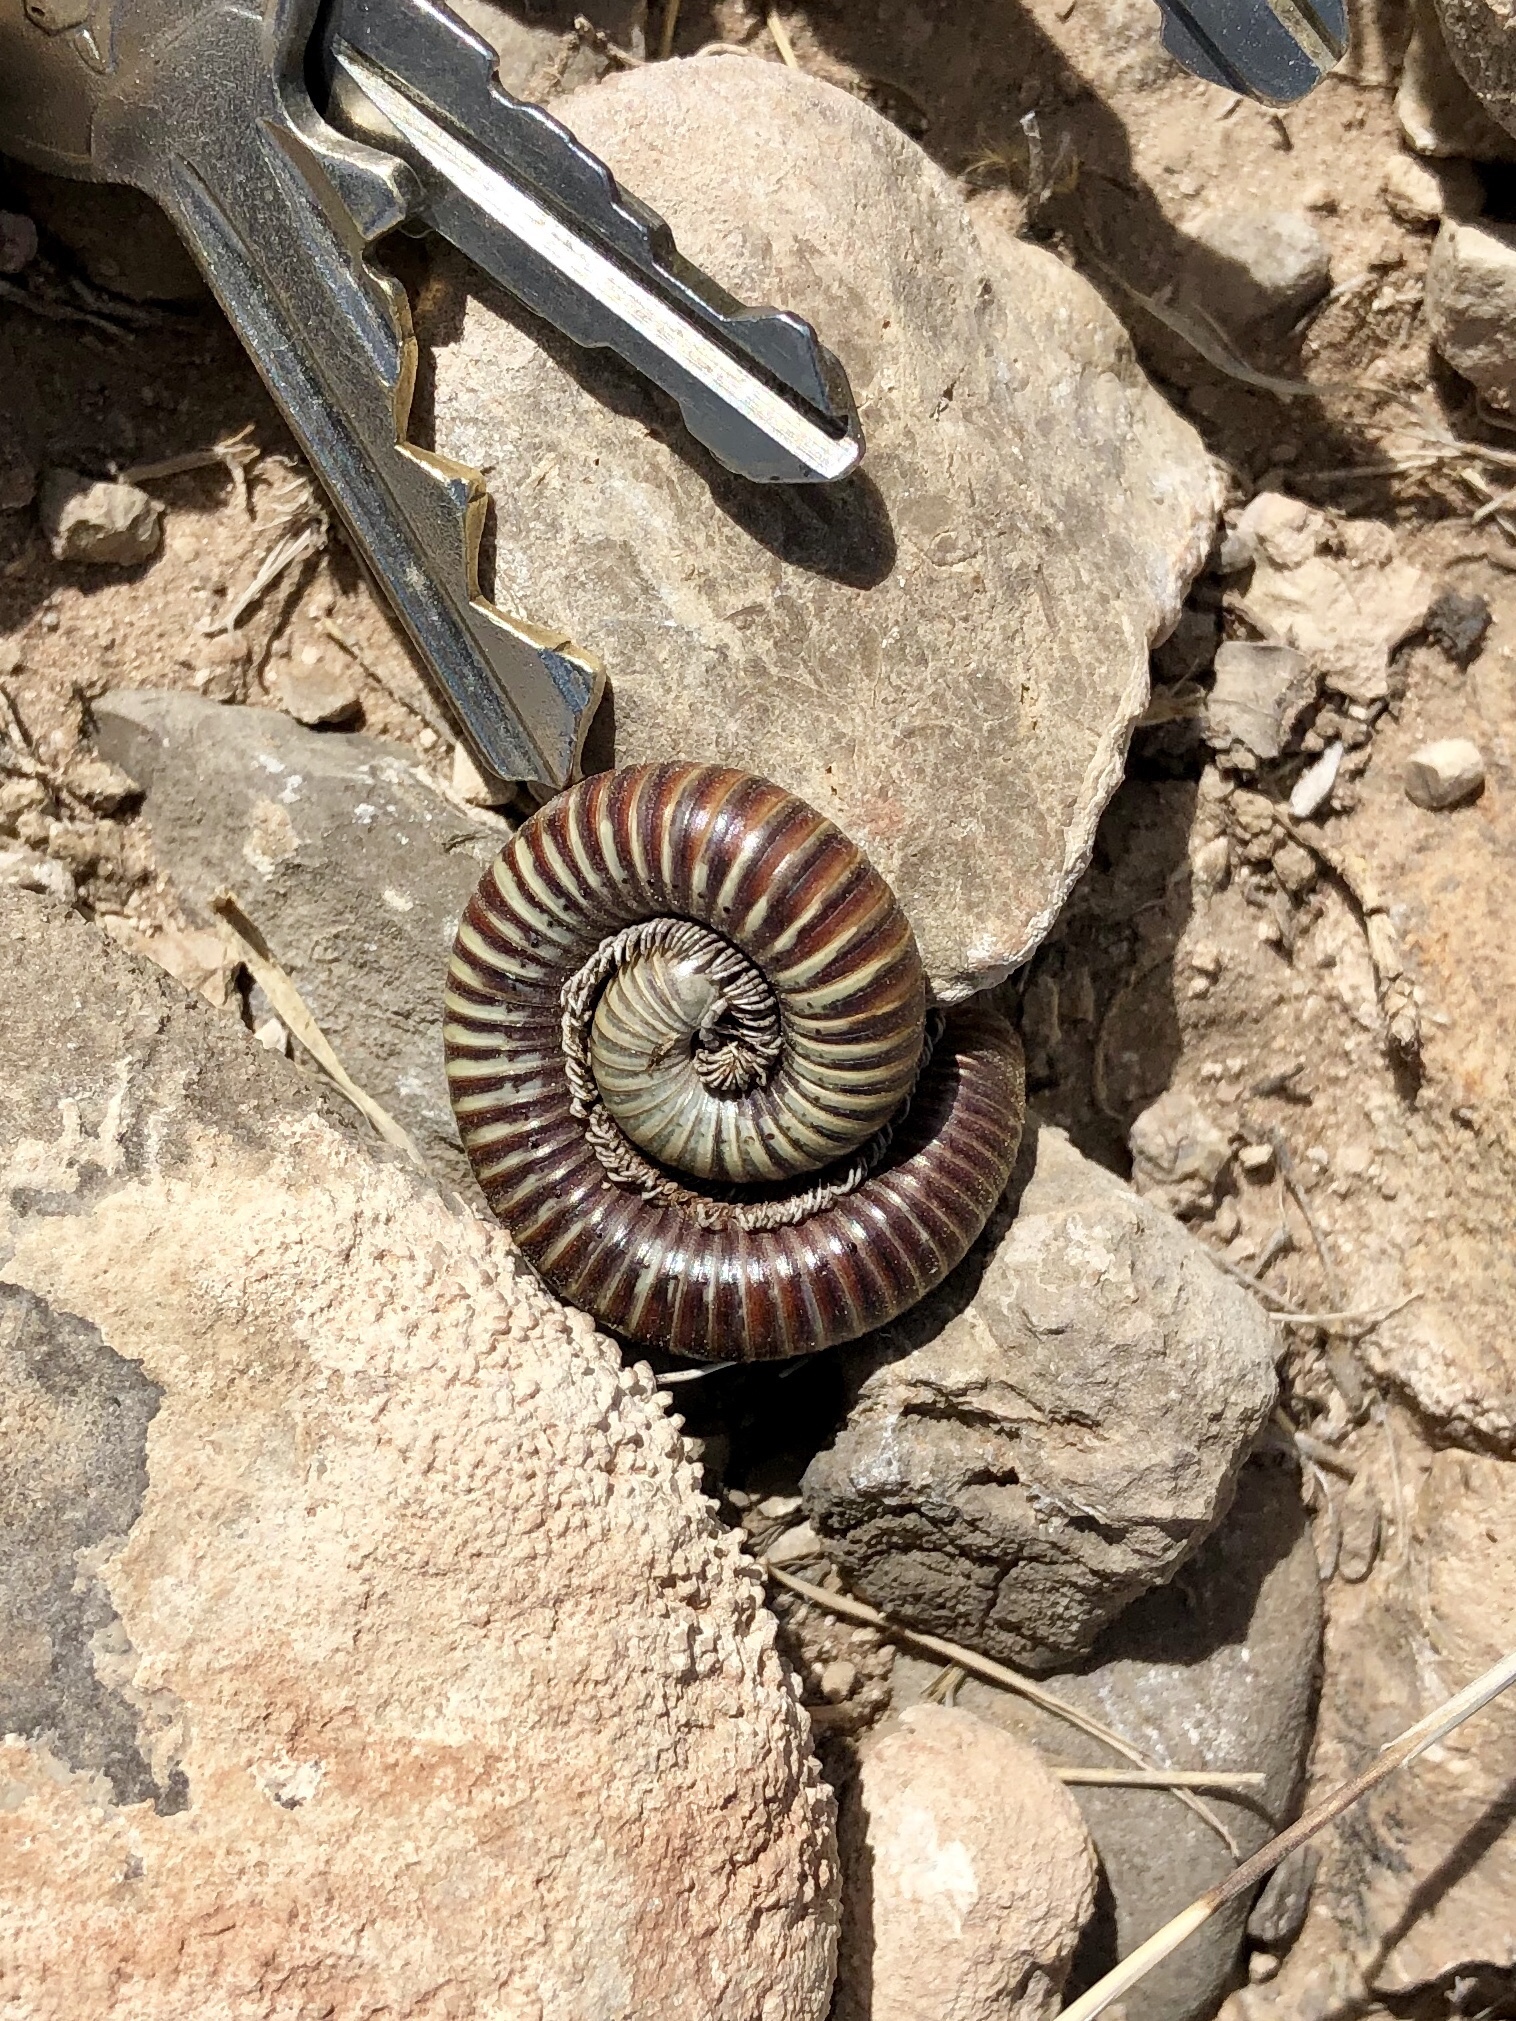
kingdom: Animalia
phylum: Arthropoda
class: Diplopoda
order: Spirostreptida
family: Spirostreptidae
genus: Orthoporus
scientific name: Orthoporus ornatus
